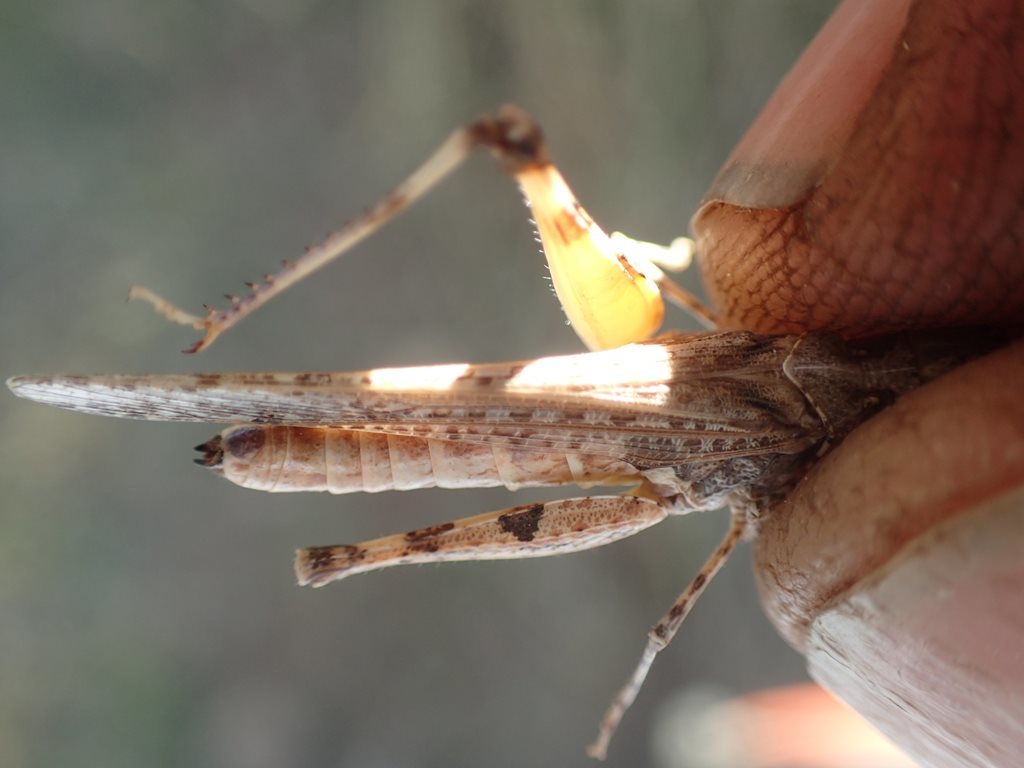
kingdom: Animalia
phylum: Arthropoda
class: Insecta
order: Orthoptera
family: Acrididae
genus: Pycnostictus
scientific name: Pycnostictus seriatus
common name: Common bandwing
